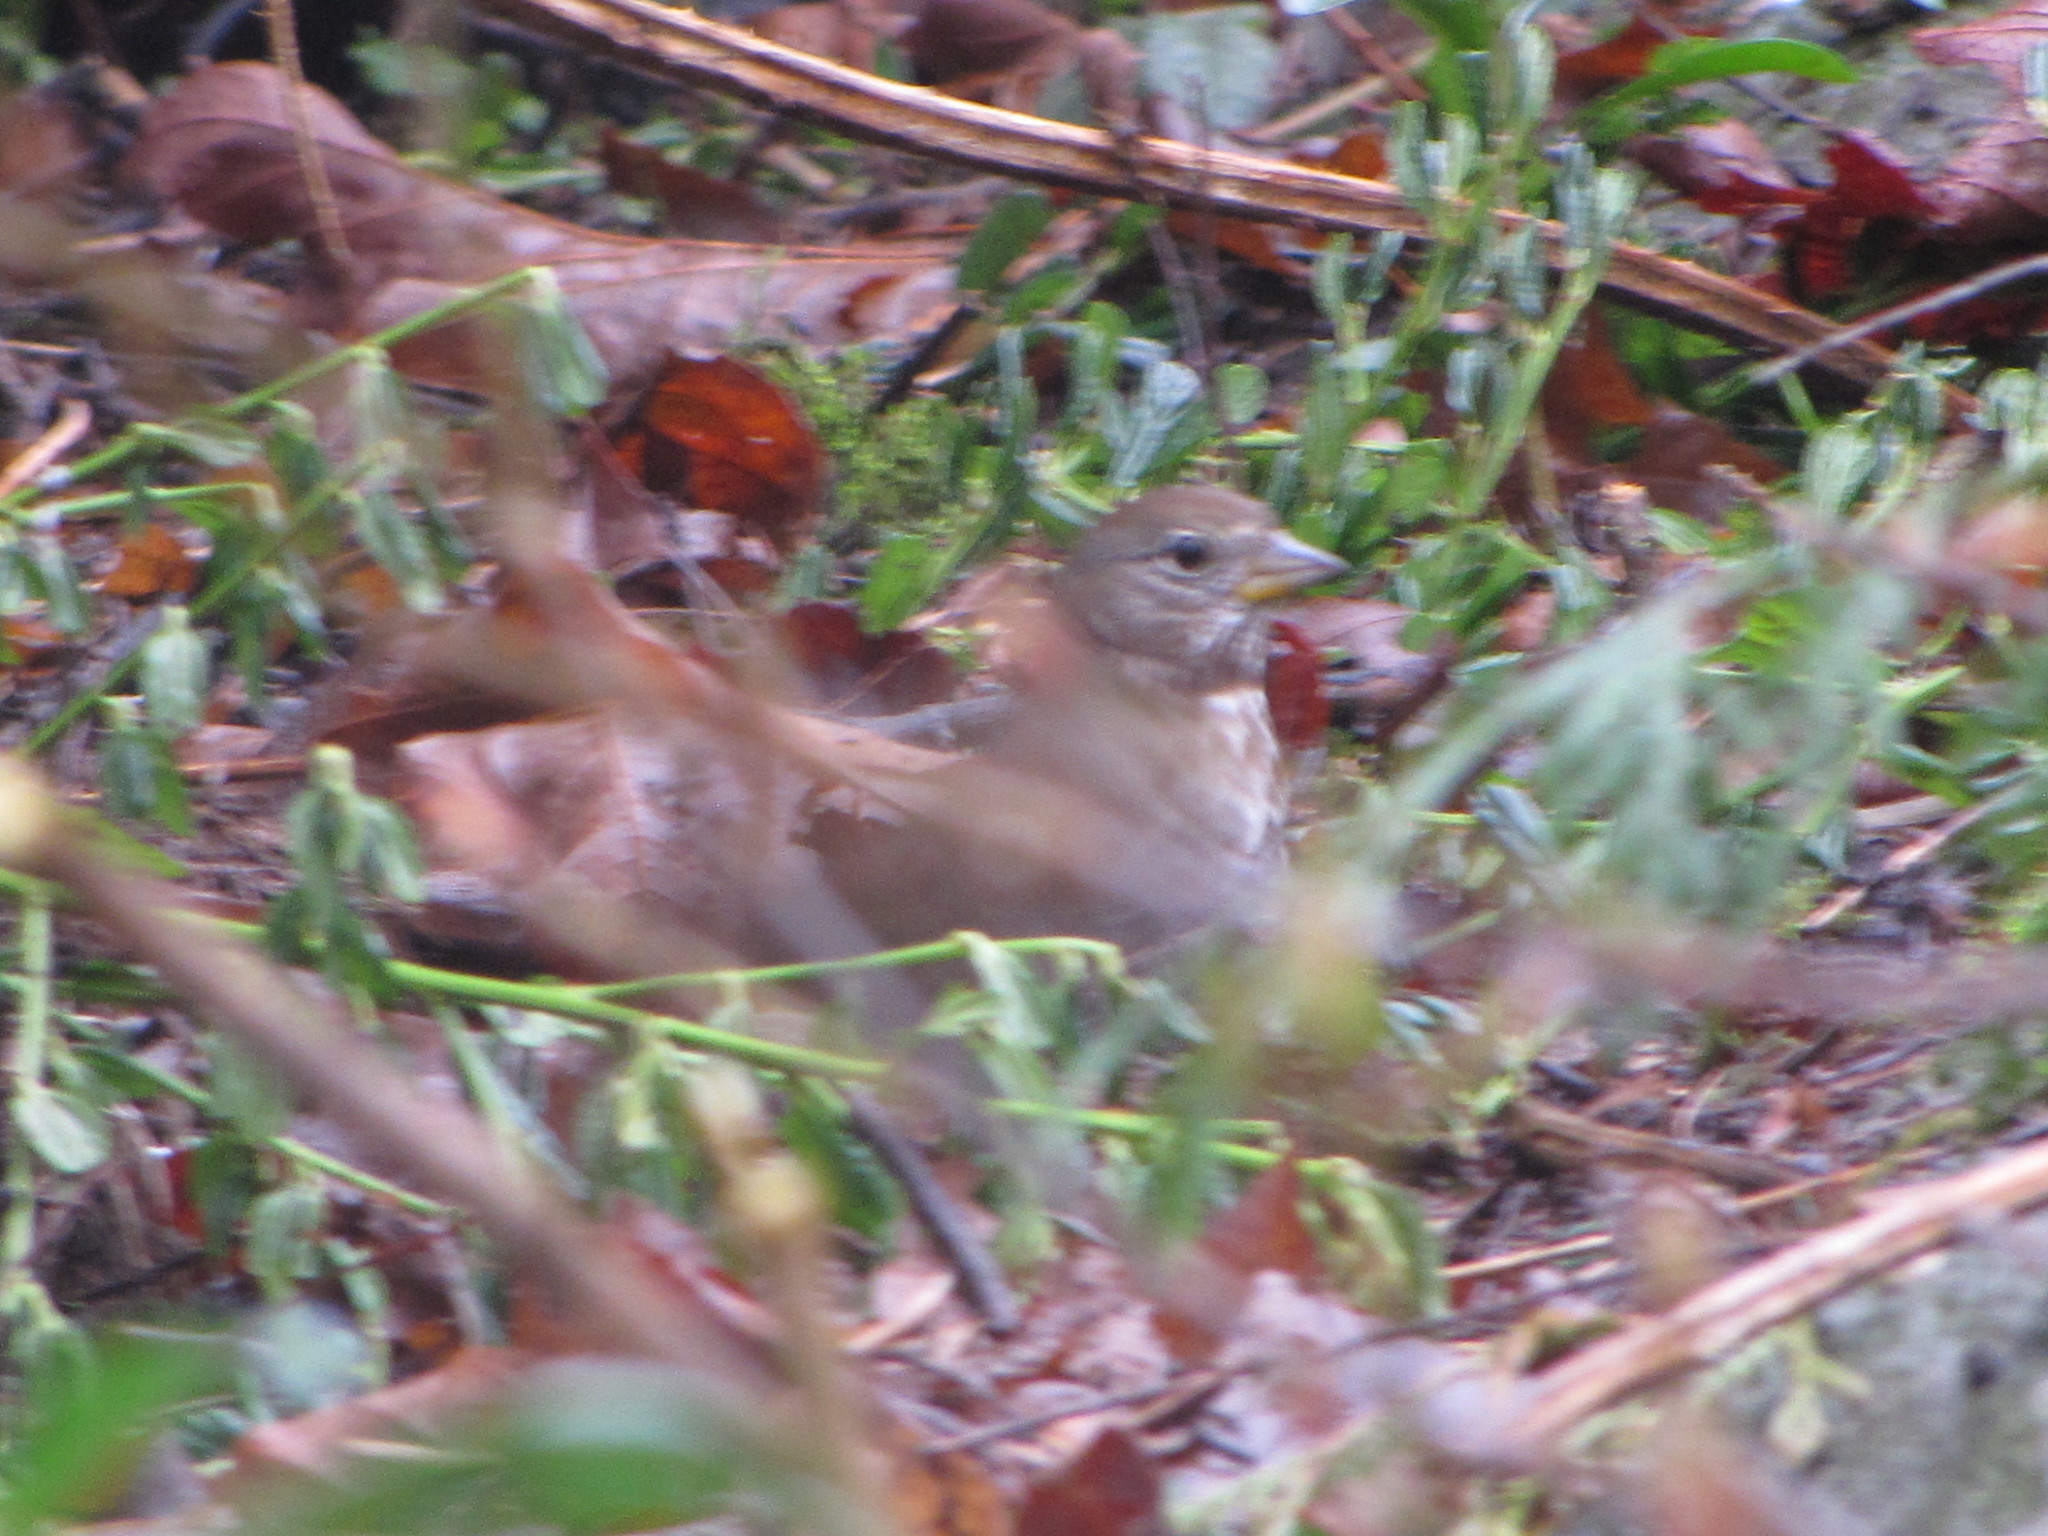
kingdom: Animalia
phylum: Chordata
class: Aves
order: Passeriformes
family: Passerellidae
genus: Passerella
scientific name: Passerella iliaca
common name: Fox sparrow
